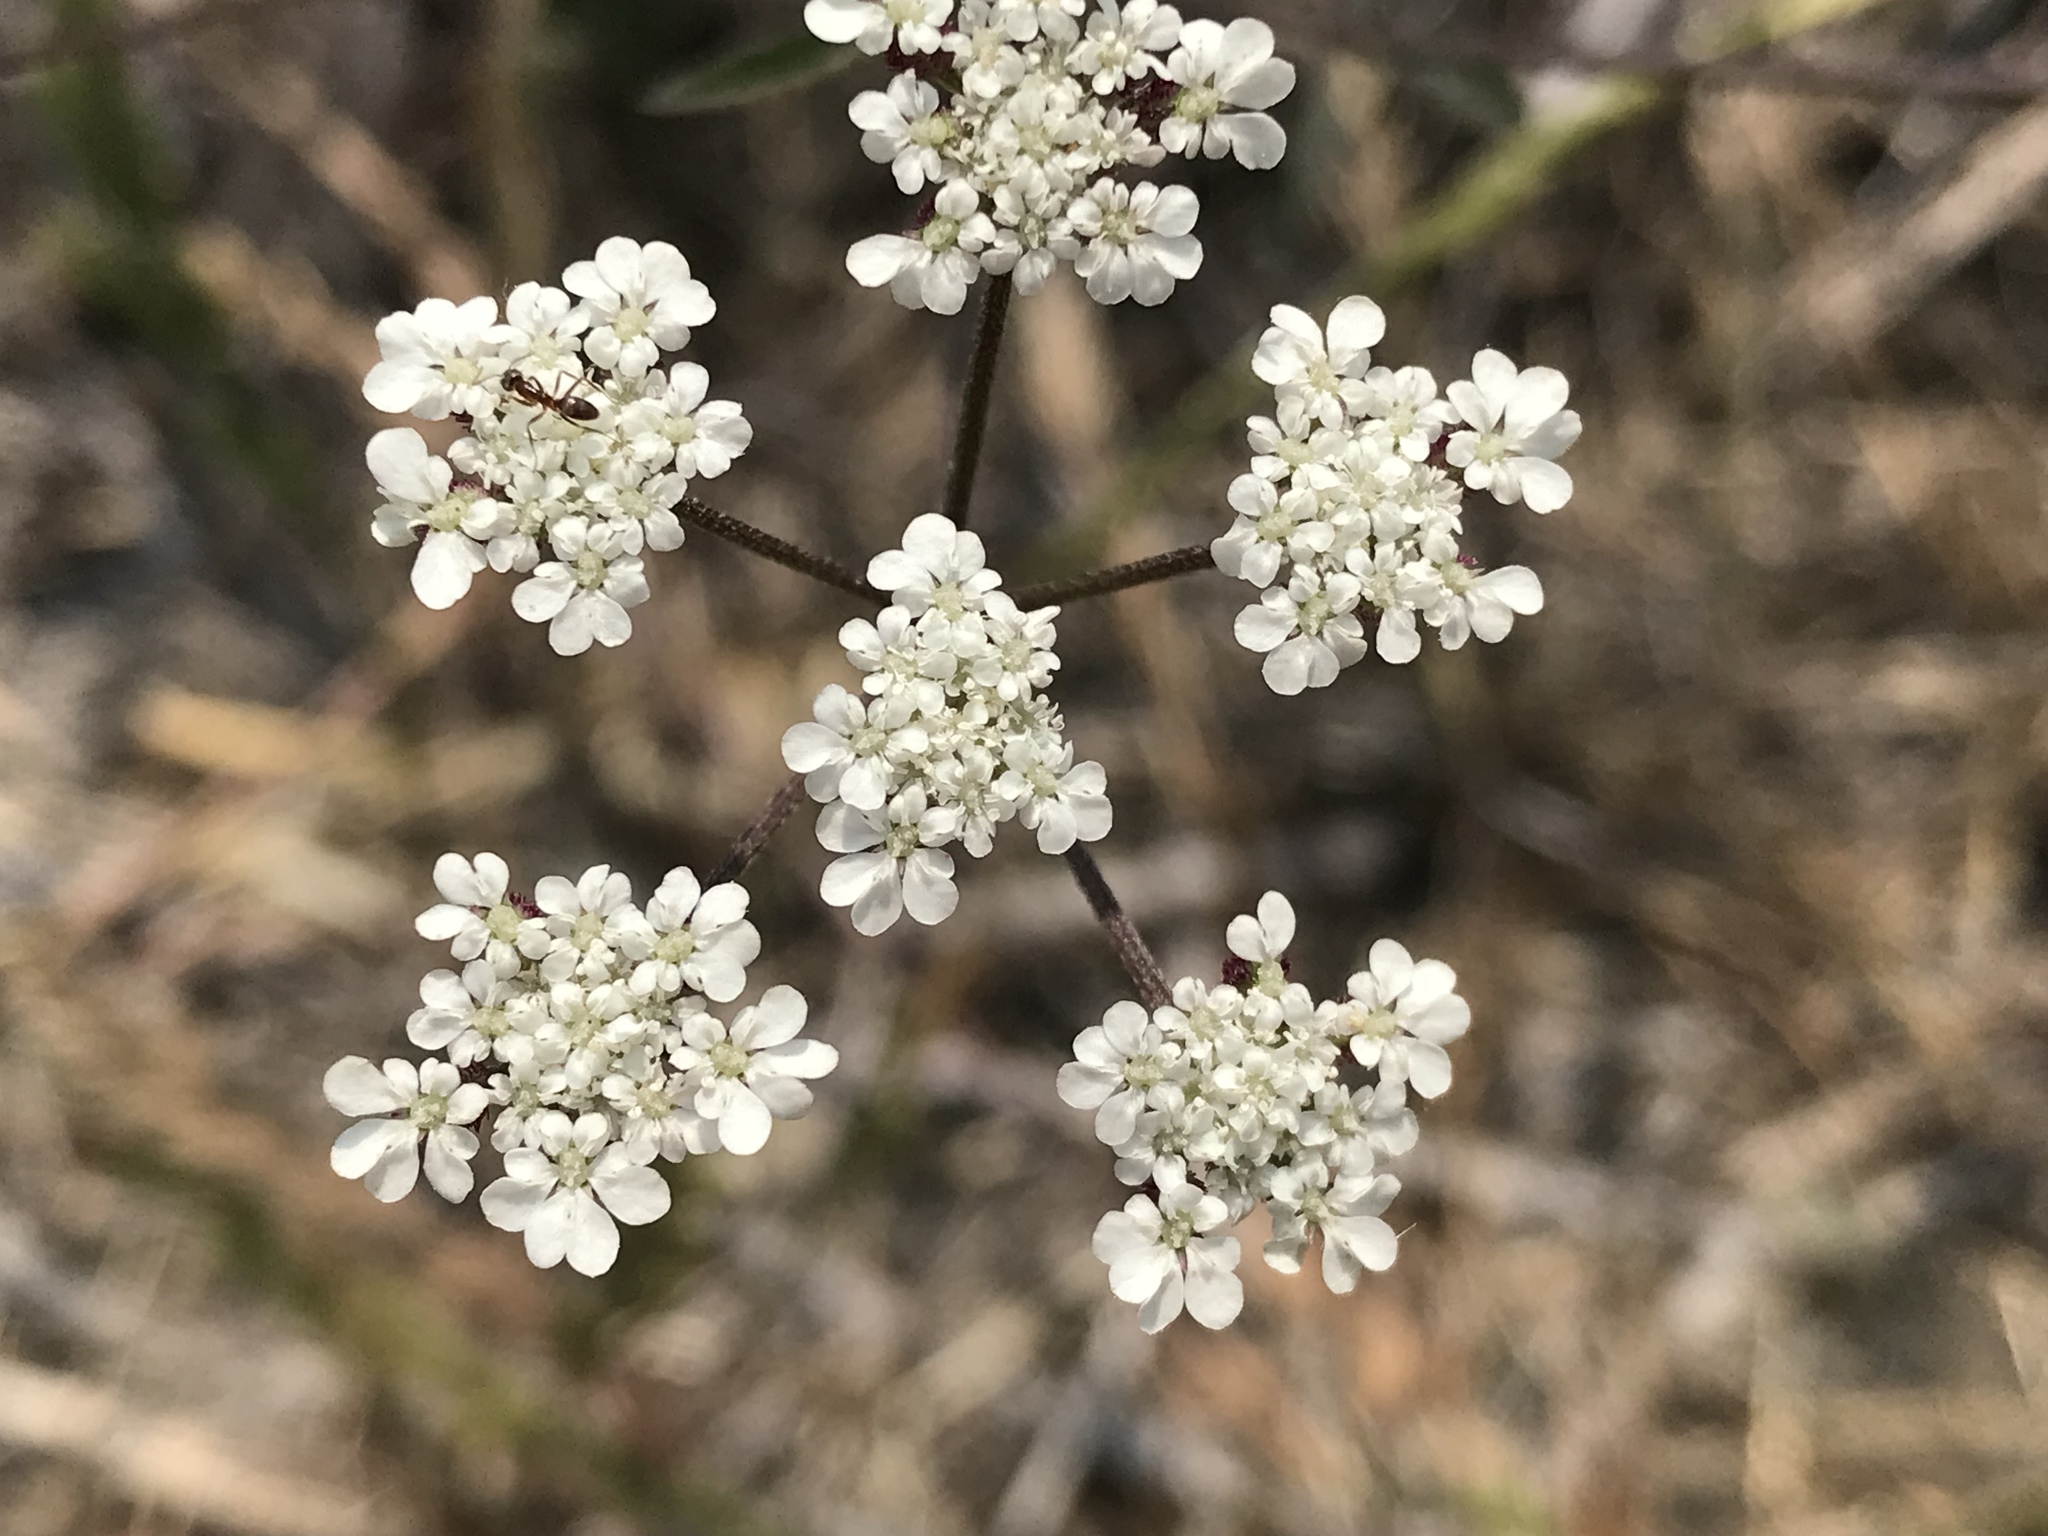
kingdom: Plantae
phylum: Tracheophyta
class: Magnoliopsida
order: Apiales
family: Apiaceae
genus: Torilis
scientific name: Torilis arvensis
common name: Spreading hedge-parsley
